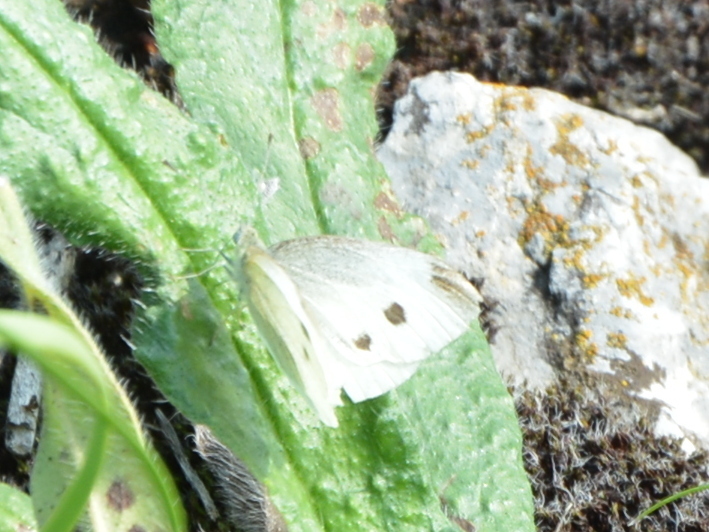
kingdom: Animalia
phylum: Arthropoda
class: Insecta
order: Lepidoptera
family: Pieridae
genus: Pieris
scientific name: Pieris rapae
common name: Small white
